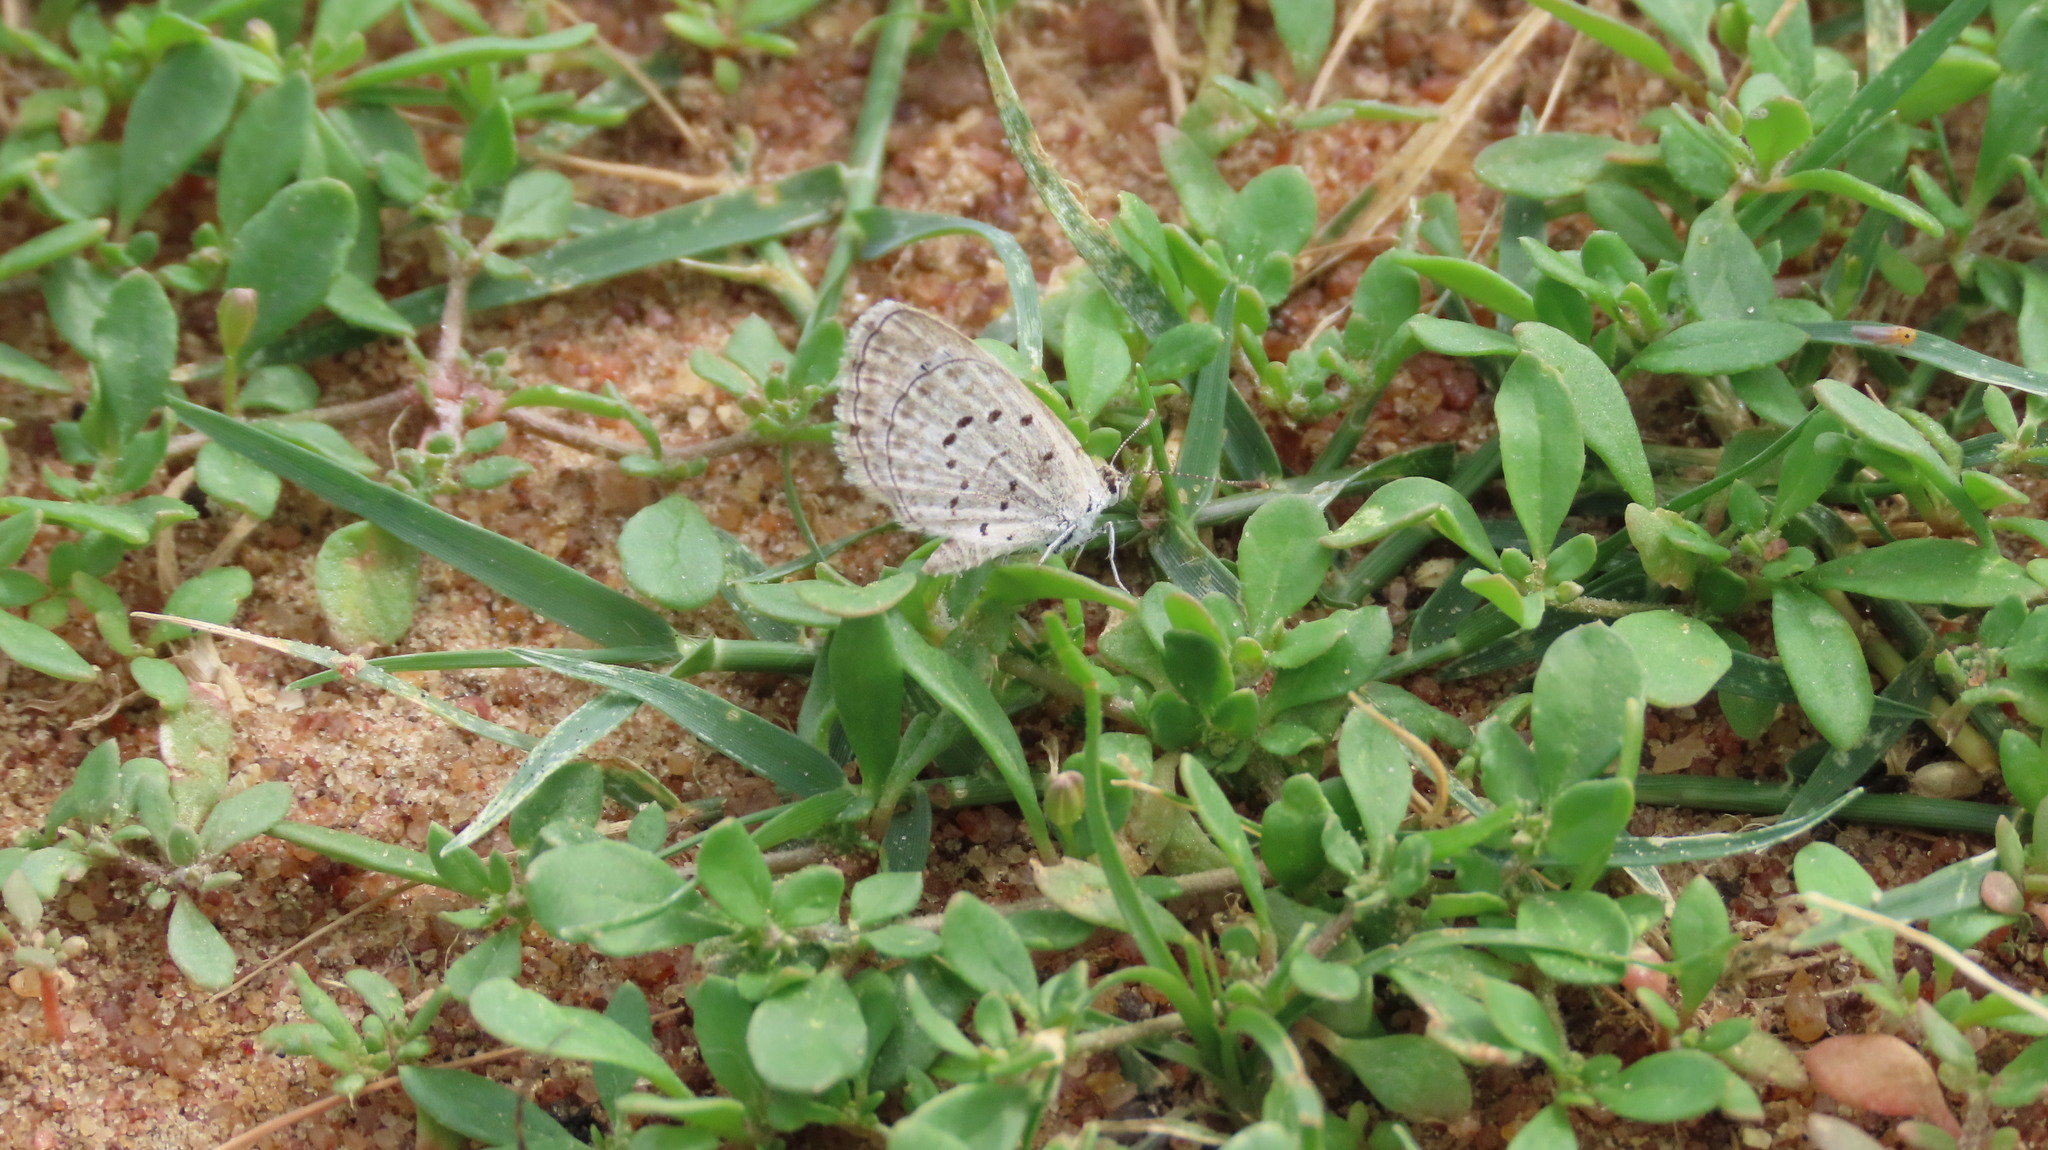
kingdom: Animalia
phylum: Arthropoda
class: Insecta
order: Lepidoptera
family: Lycaenidae
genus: Zizeeria
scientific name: Zizeeria karsandra
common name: Dark grass blue
